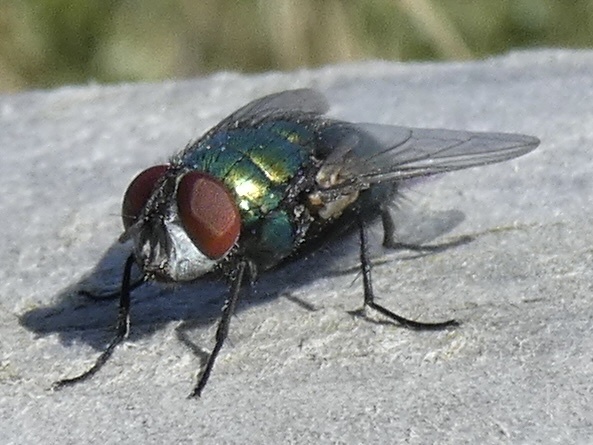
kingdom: Animalia
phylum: Arthropoda
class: Insecta
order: Diptera
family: Calliphoridae
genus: Lucilia
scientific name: Lucilia sericata
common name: Blow fly
